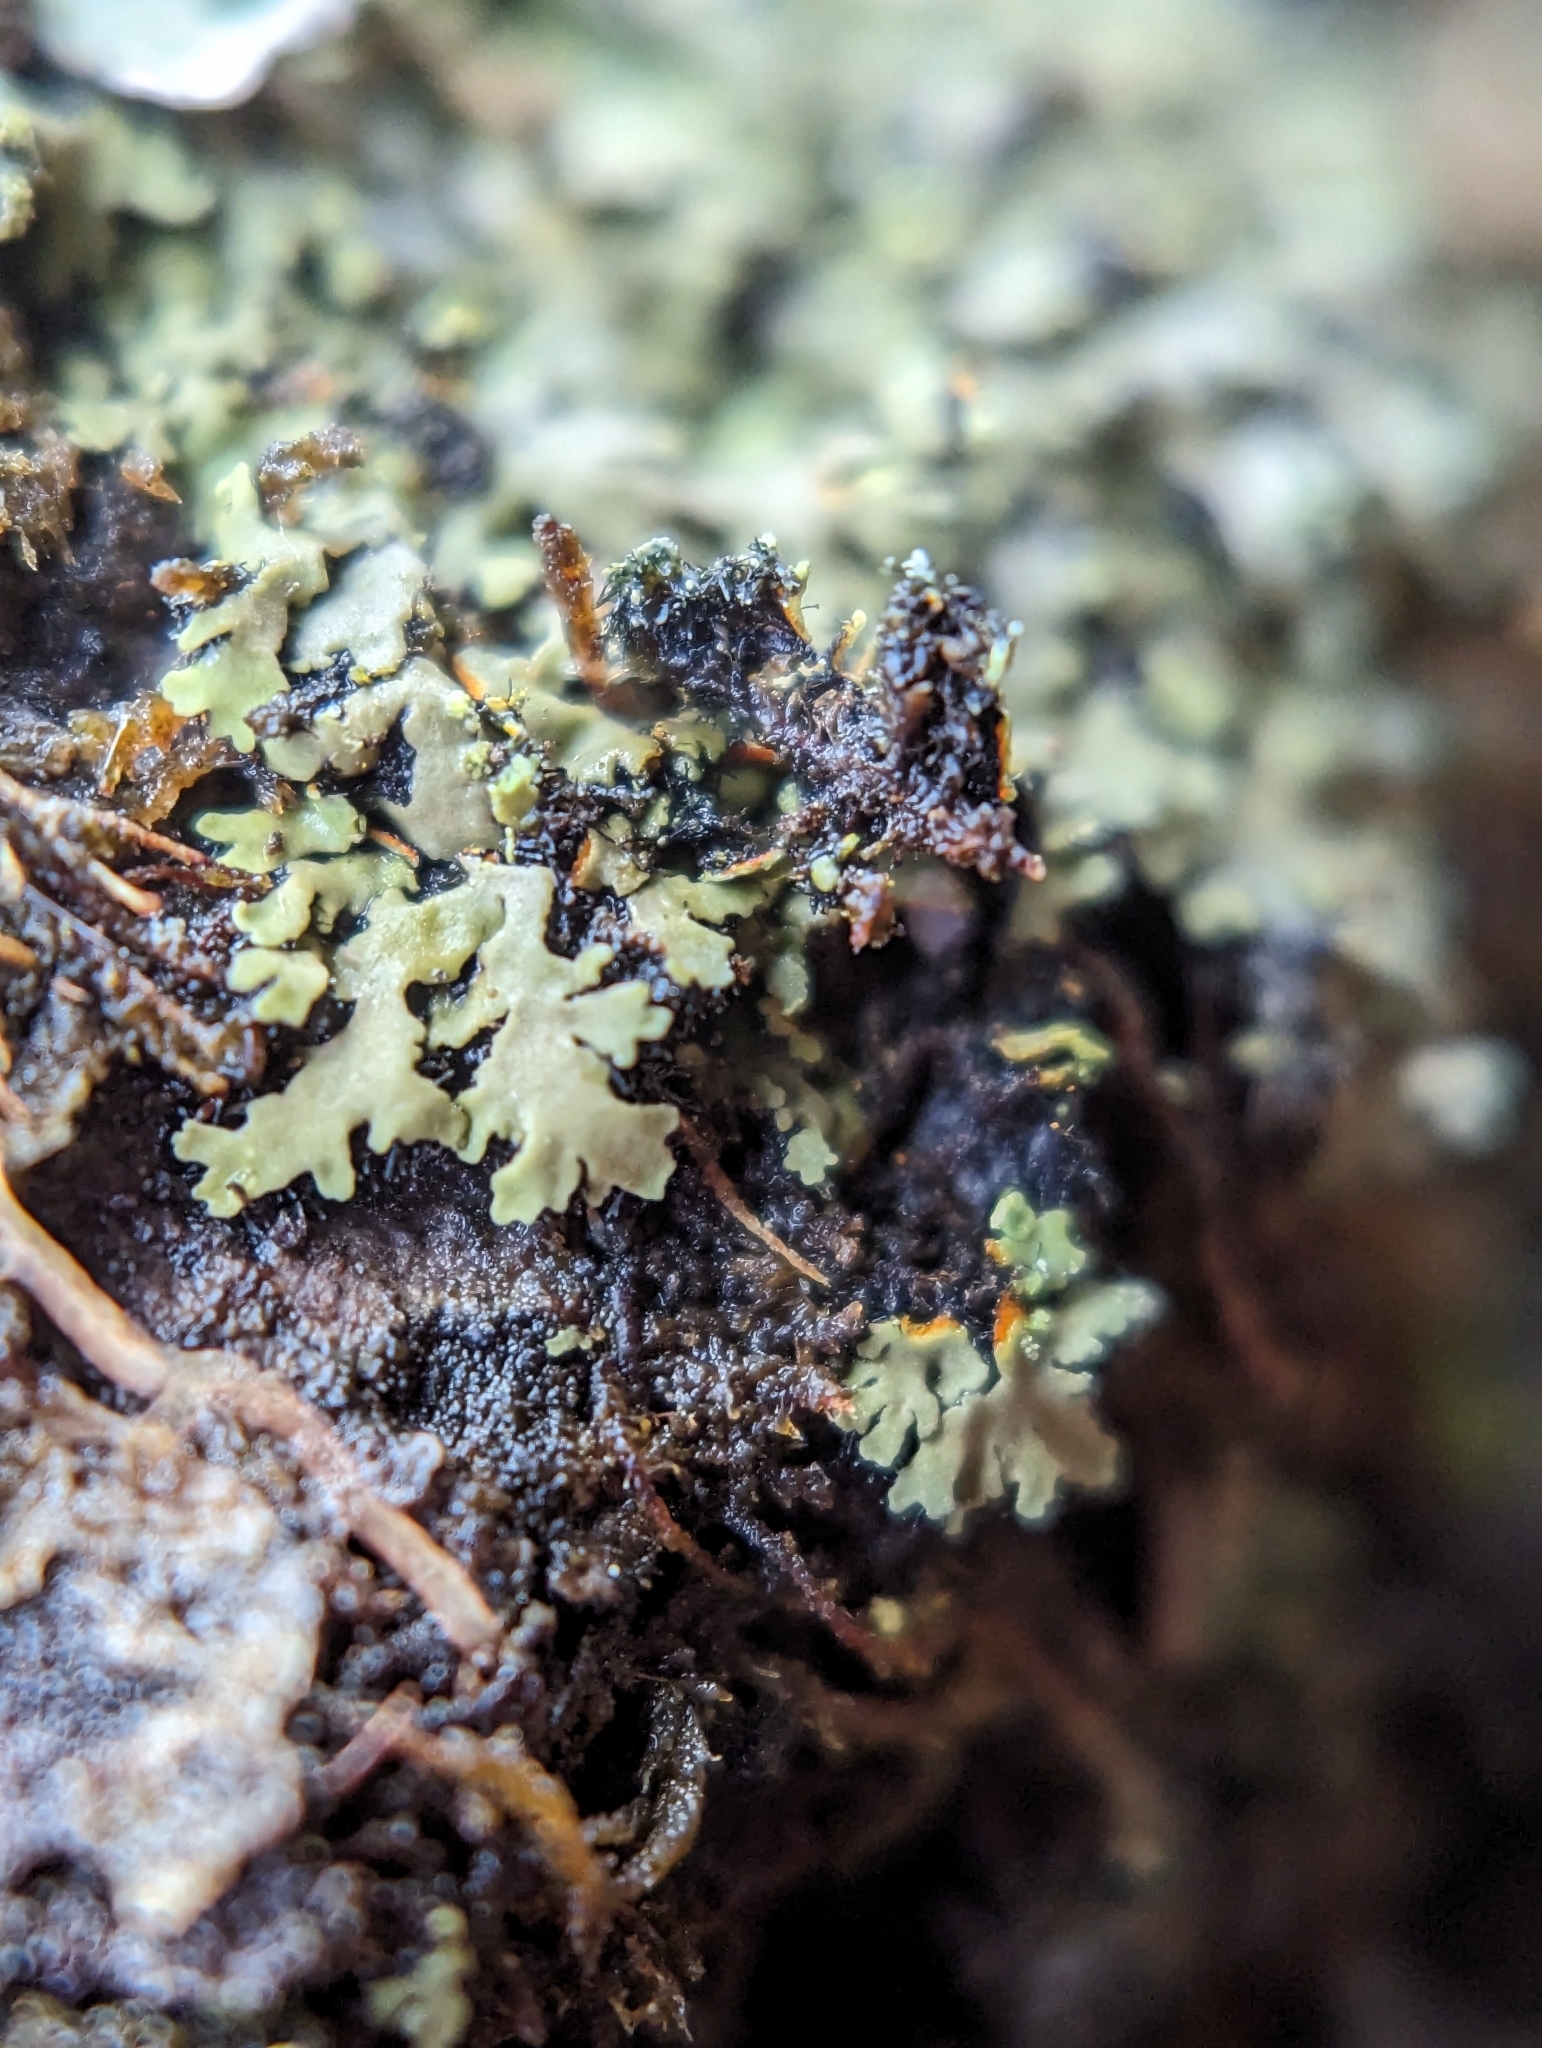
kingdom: Fungi
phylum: Ascomycota
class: Lecanoromycetes
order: Caliciales
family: Physciaceae
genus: Phaeophyscia
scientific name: Phaeophyscia rubropulchra
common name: Orange-cored shadow lichen
